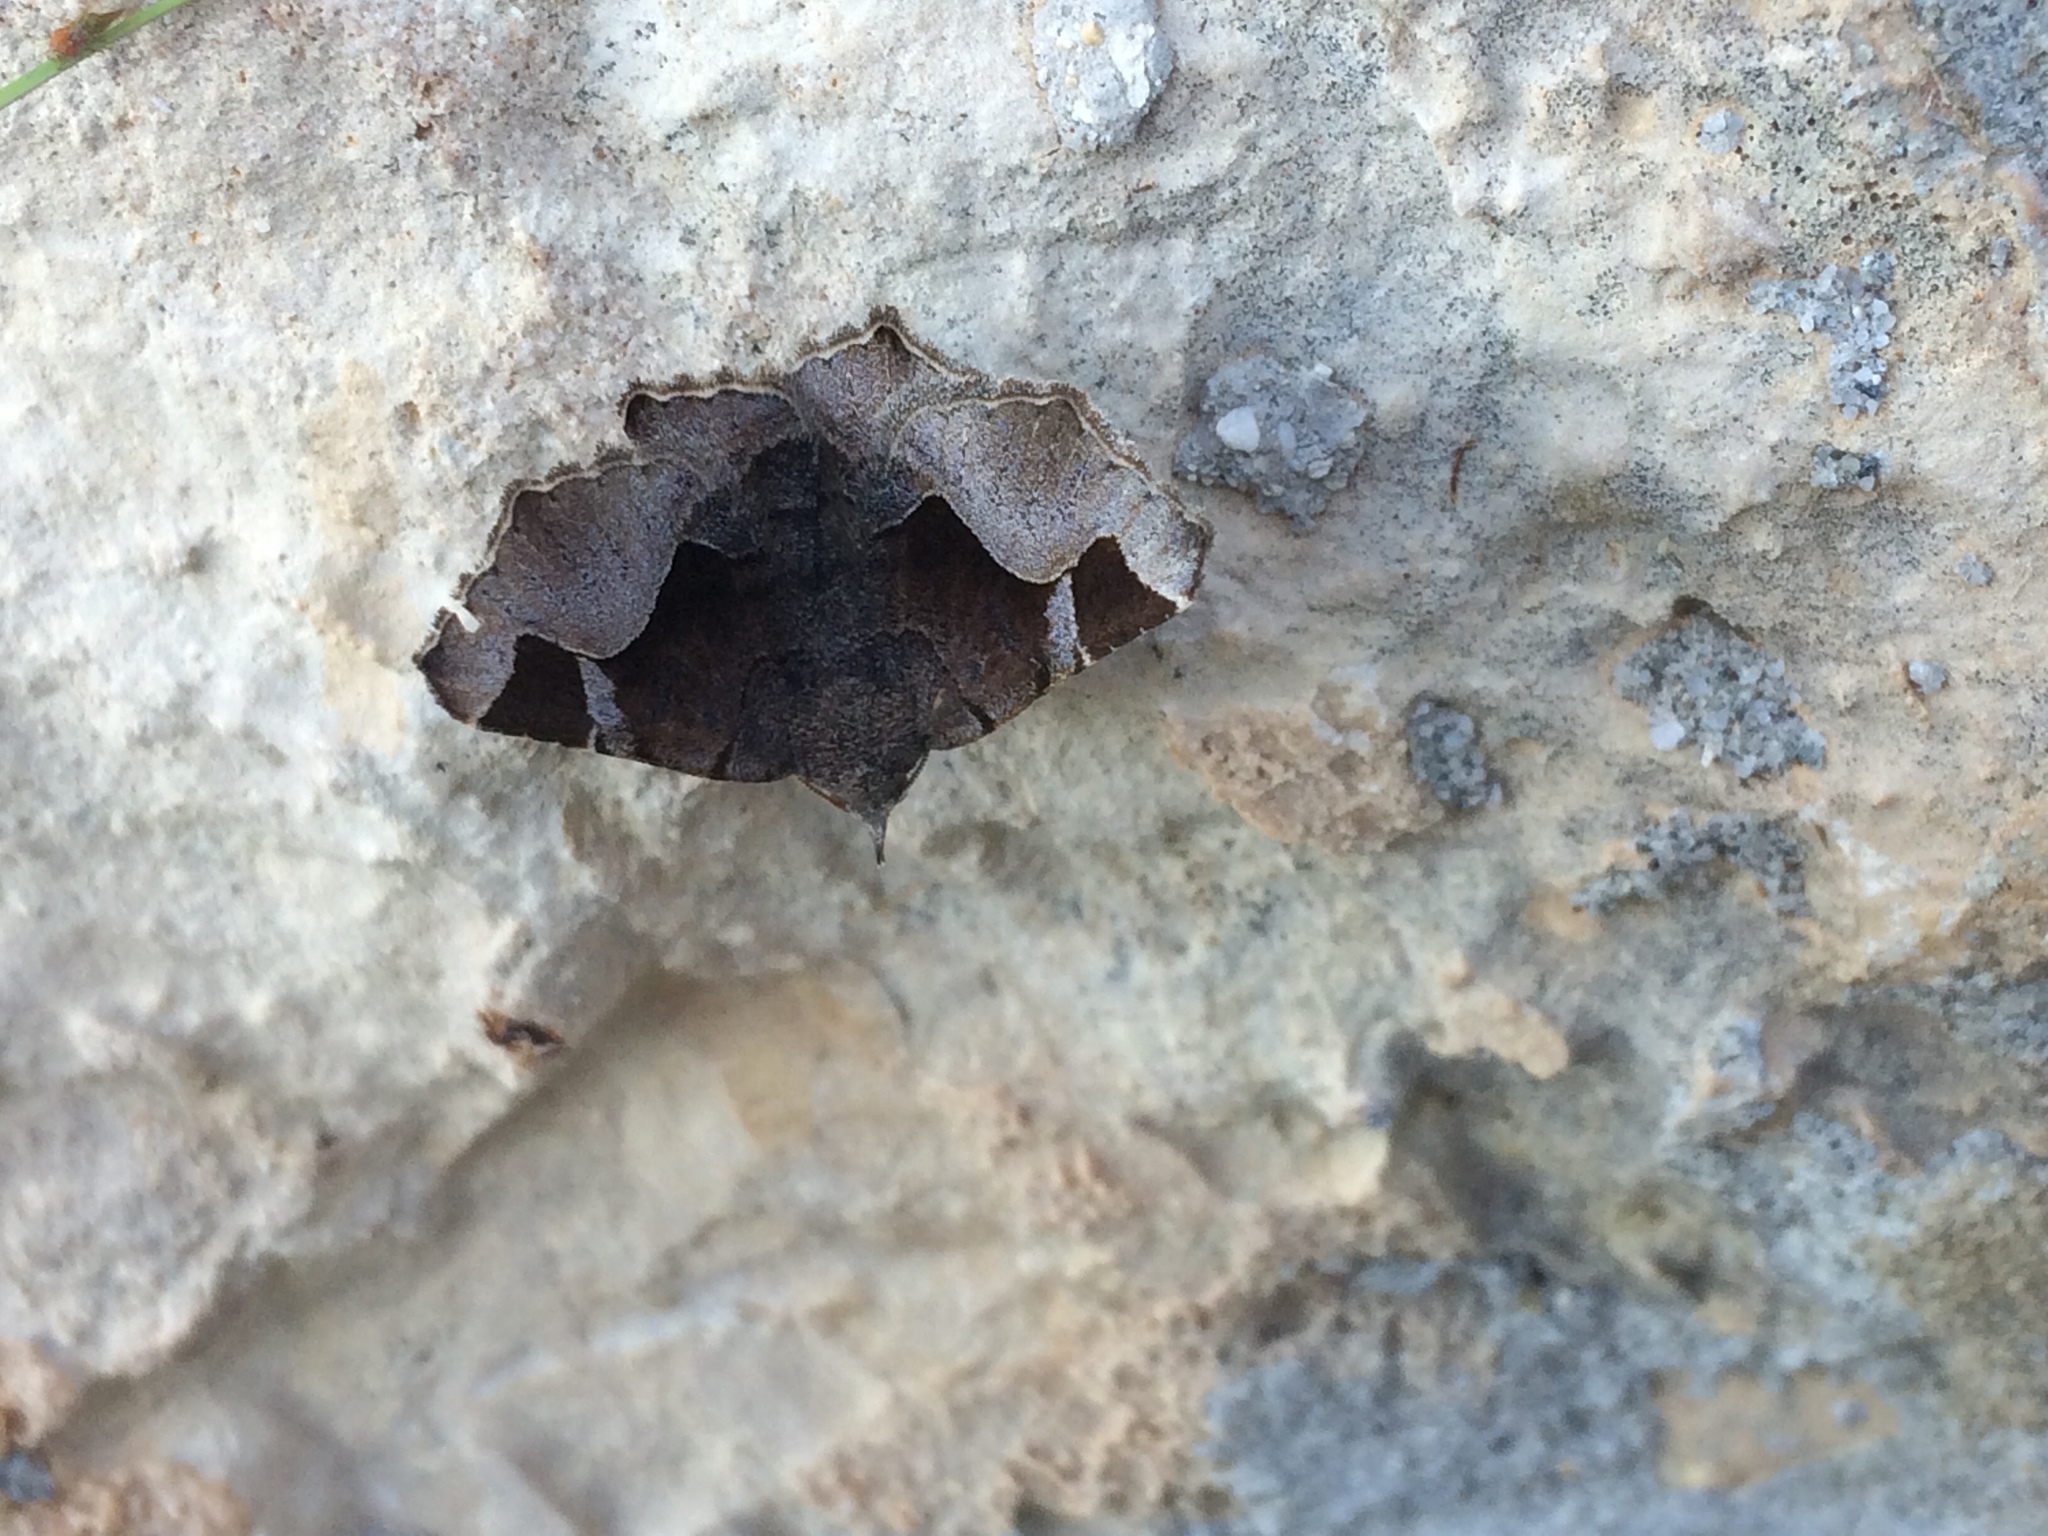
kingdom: Animalia
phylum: Arthropoda
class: Insecta
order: Lepidoptera
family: Erebidae
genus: Zethes
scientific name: Zethes insularis
